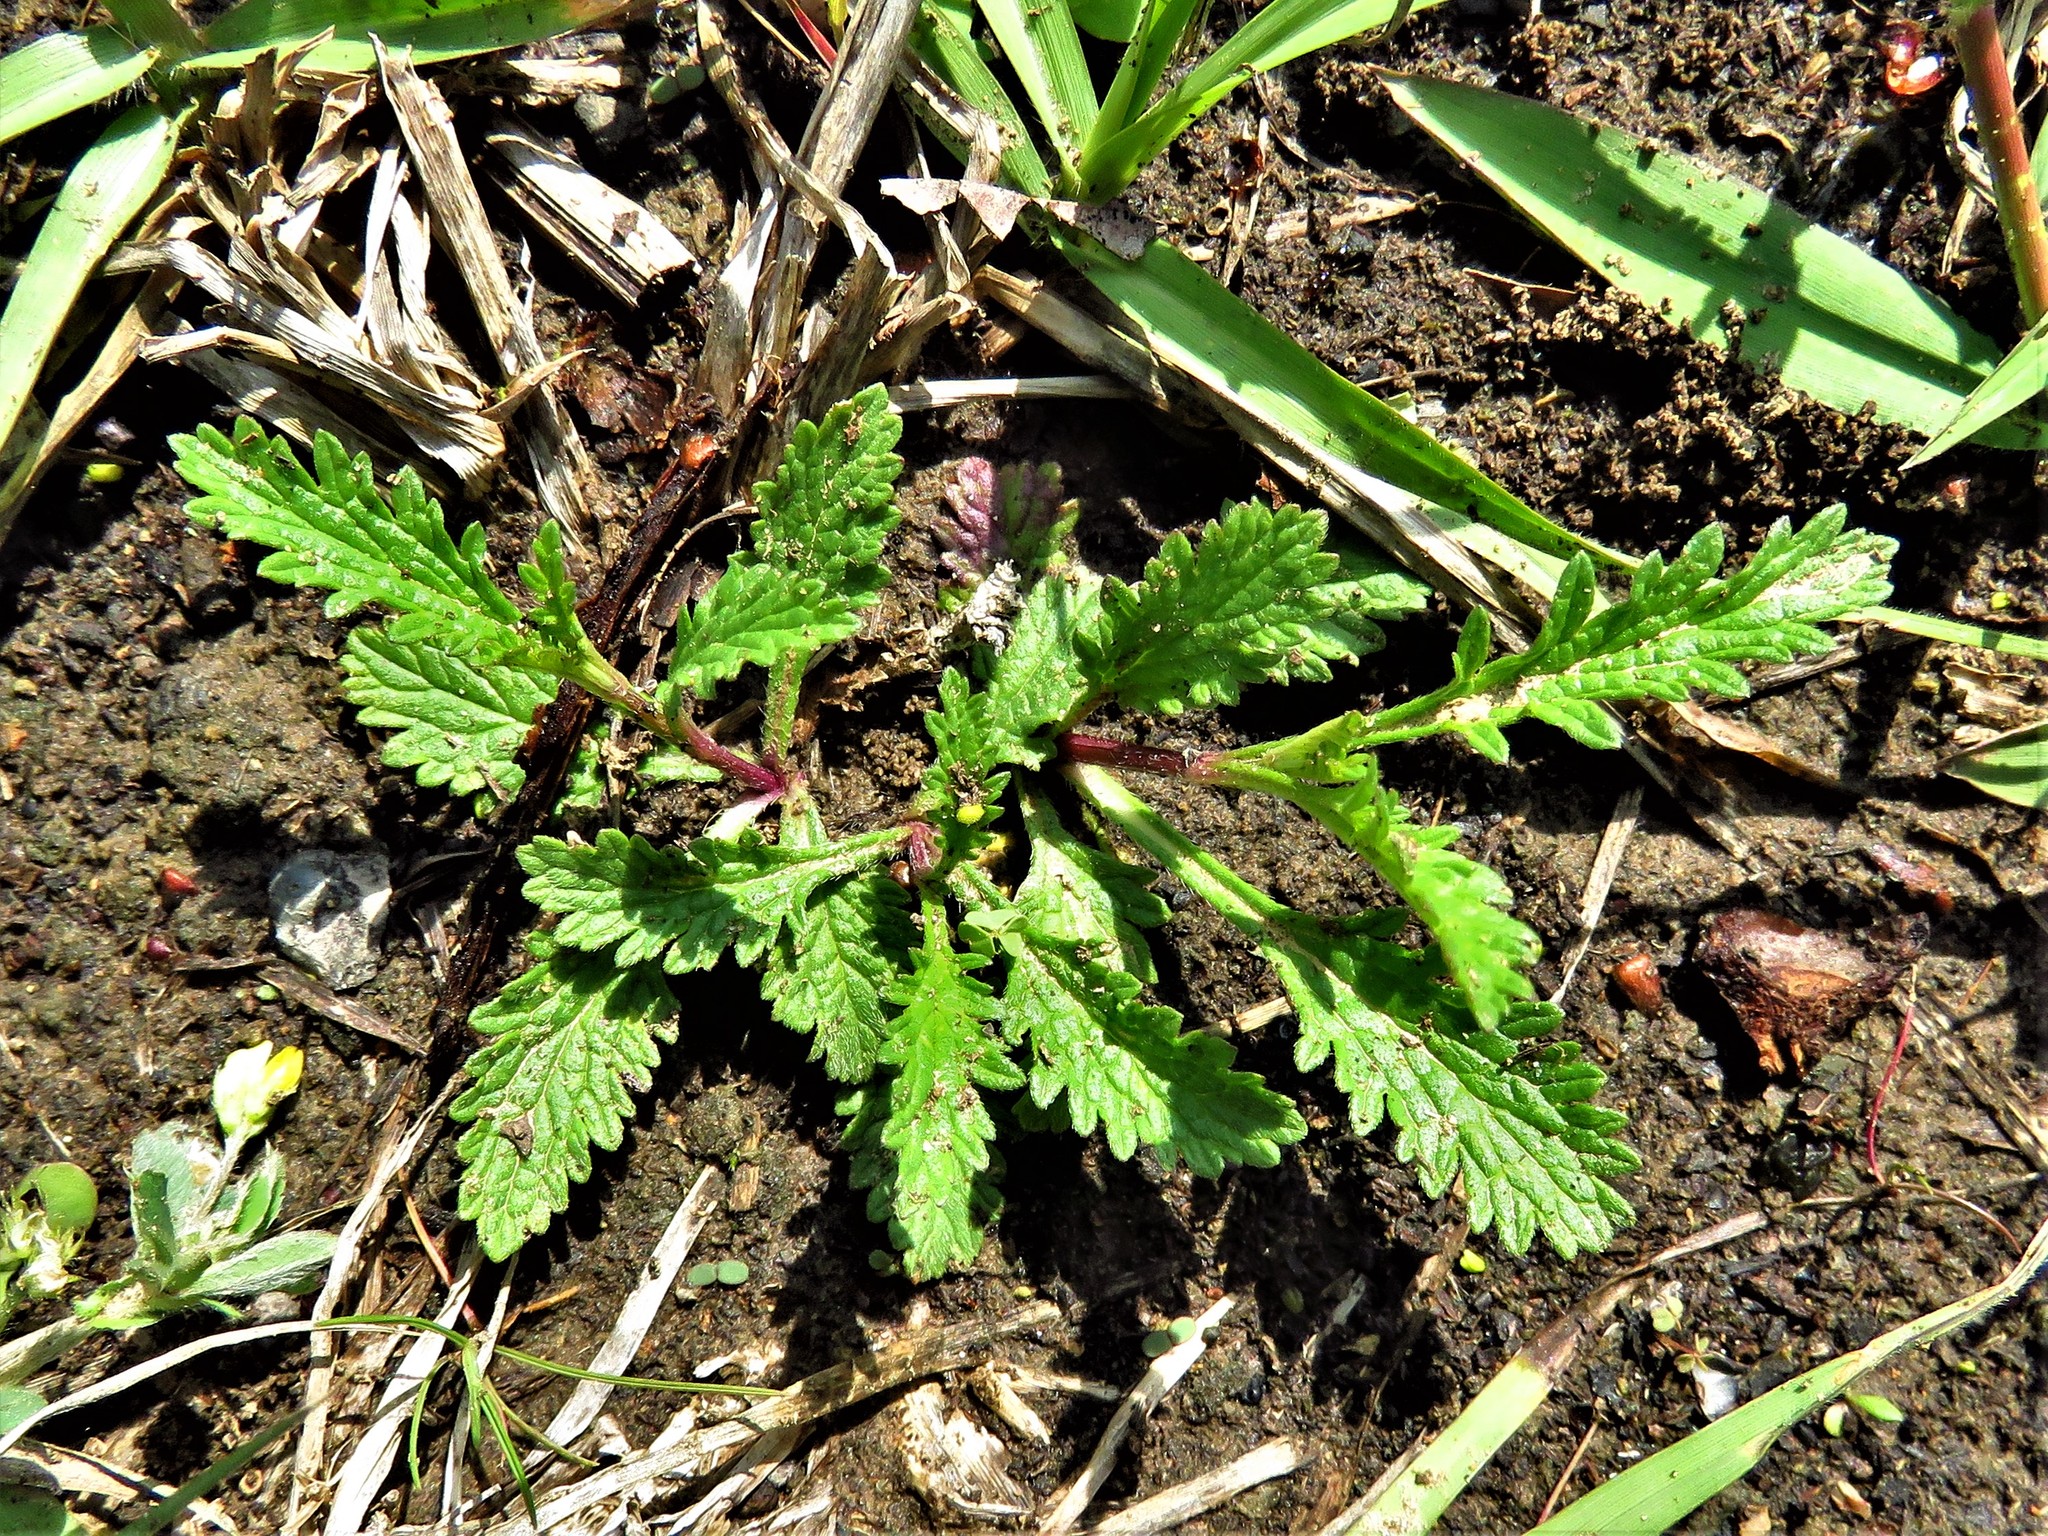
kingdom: Plantae
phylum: Tracheophyta
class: Magnoliopsida
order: Lamiales
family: Verbenaceae
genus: Verbena
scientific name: Verbena halei
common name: Texas vervain
